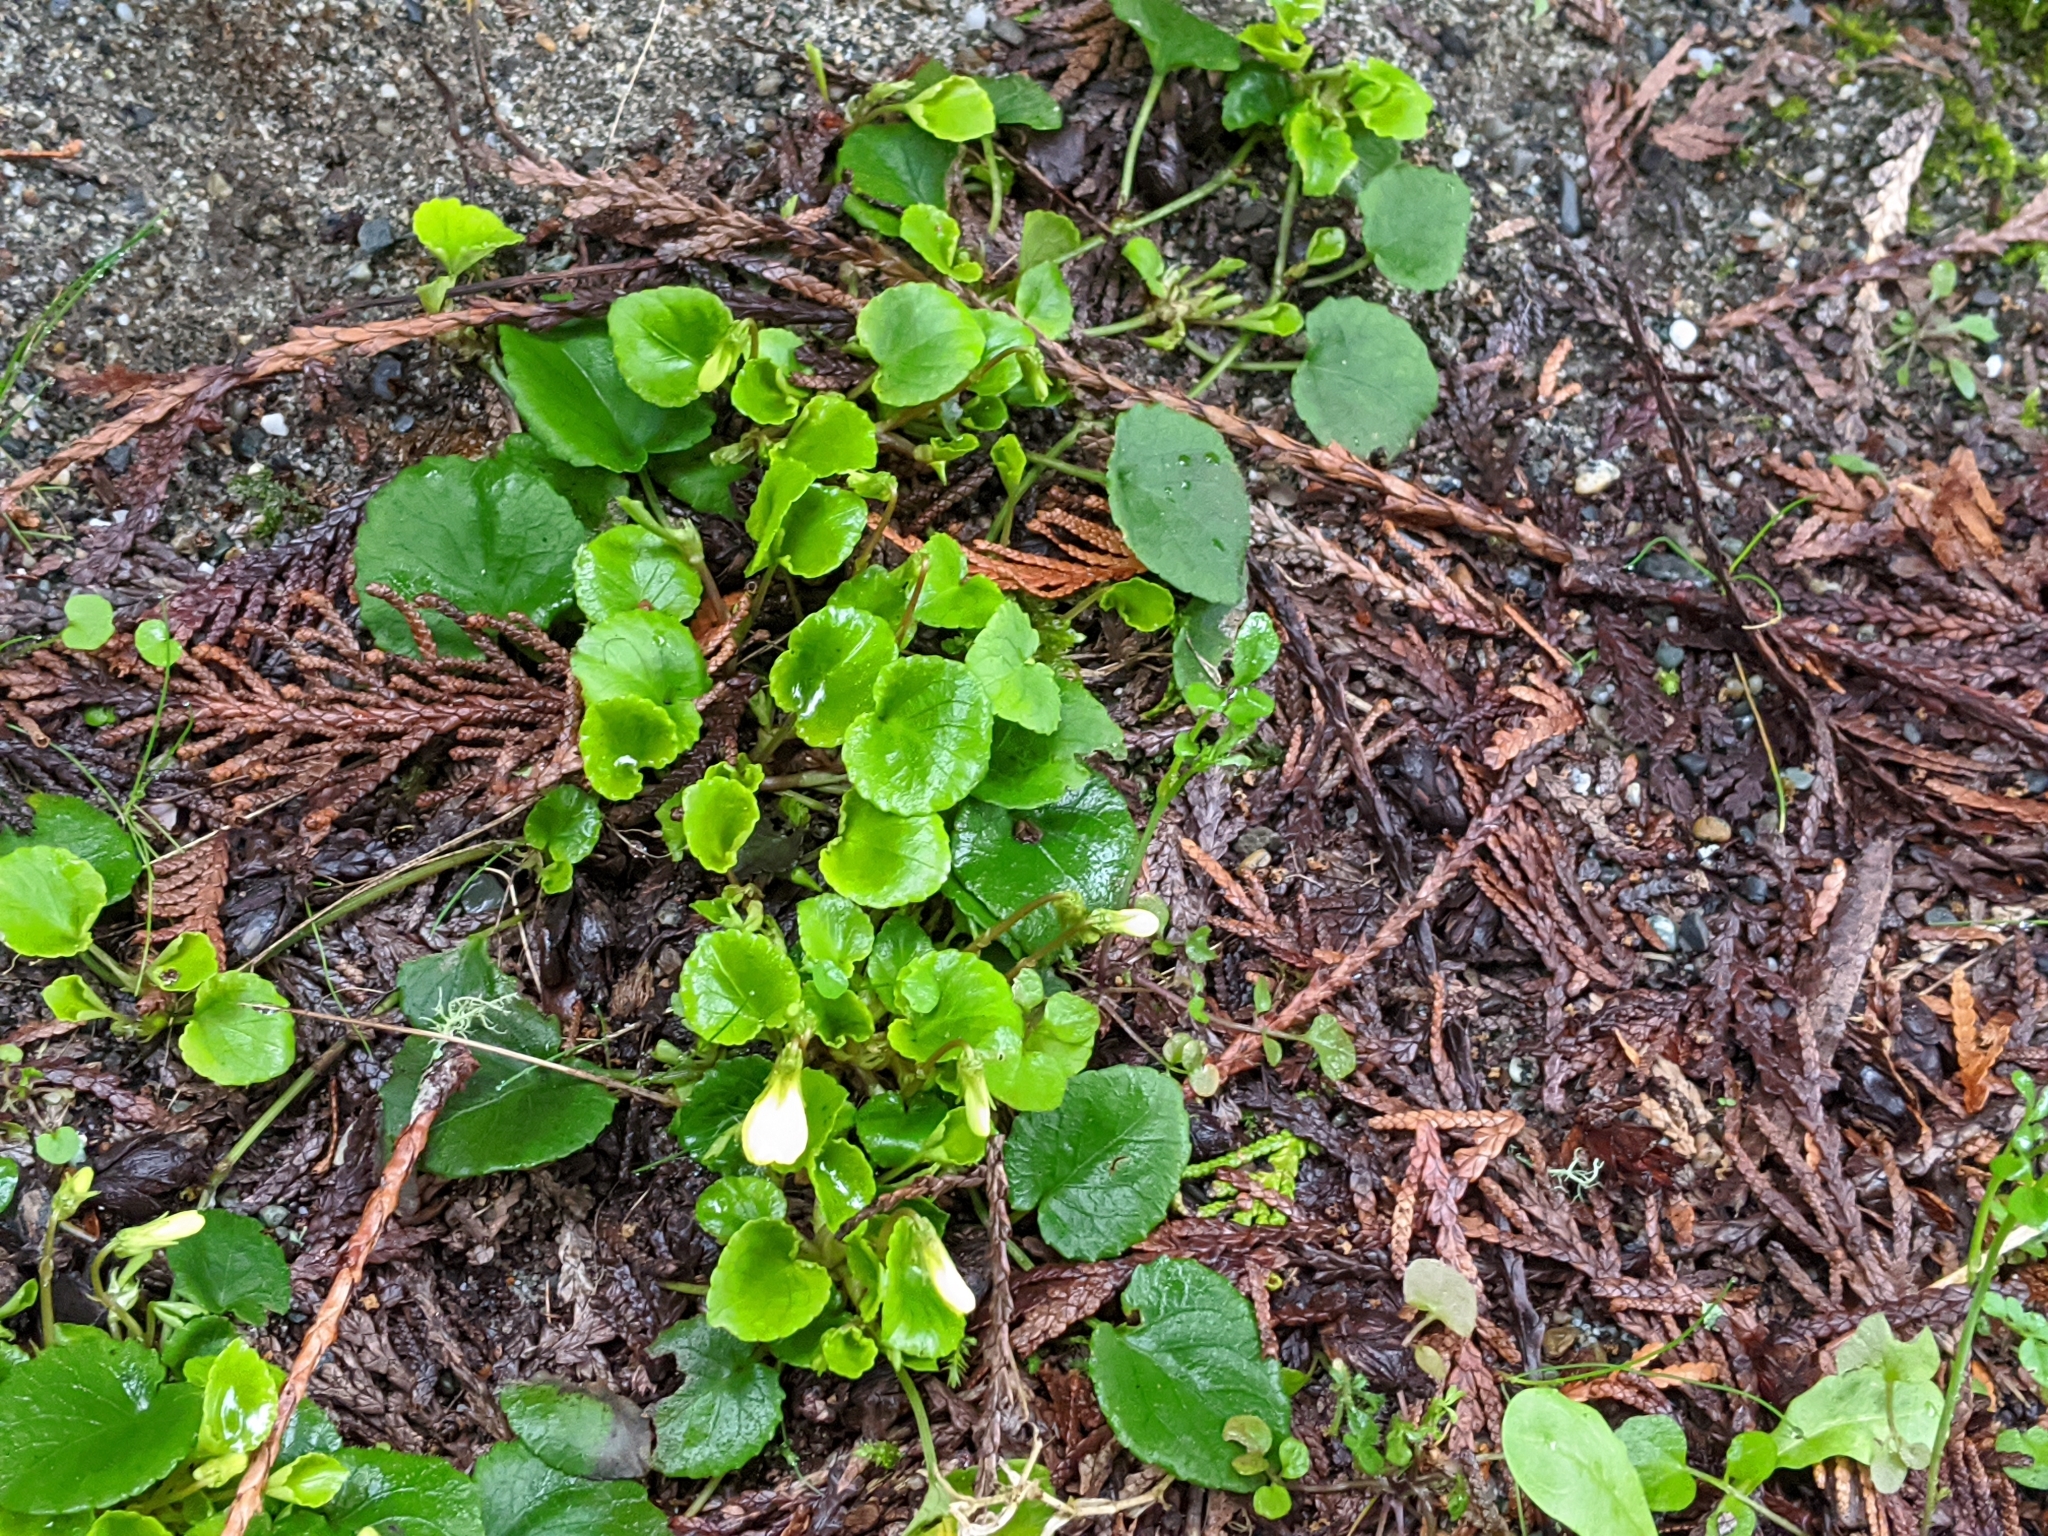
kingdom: Plantae
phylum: Tracheophyta
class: Magnoliopsida
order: Malpighiales
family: Violaceae
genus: Viola
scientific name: Viola sempervirens
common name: Evergreen violet
